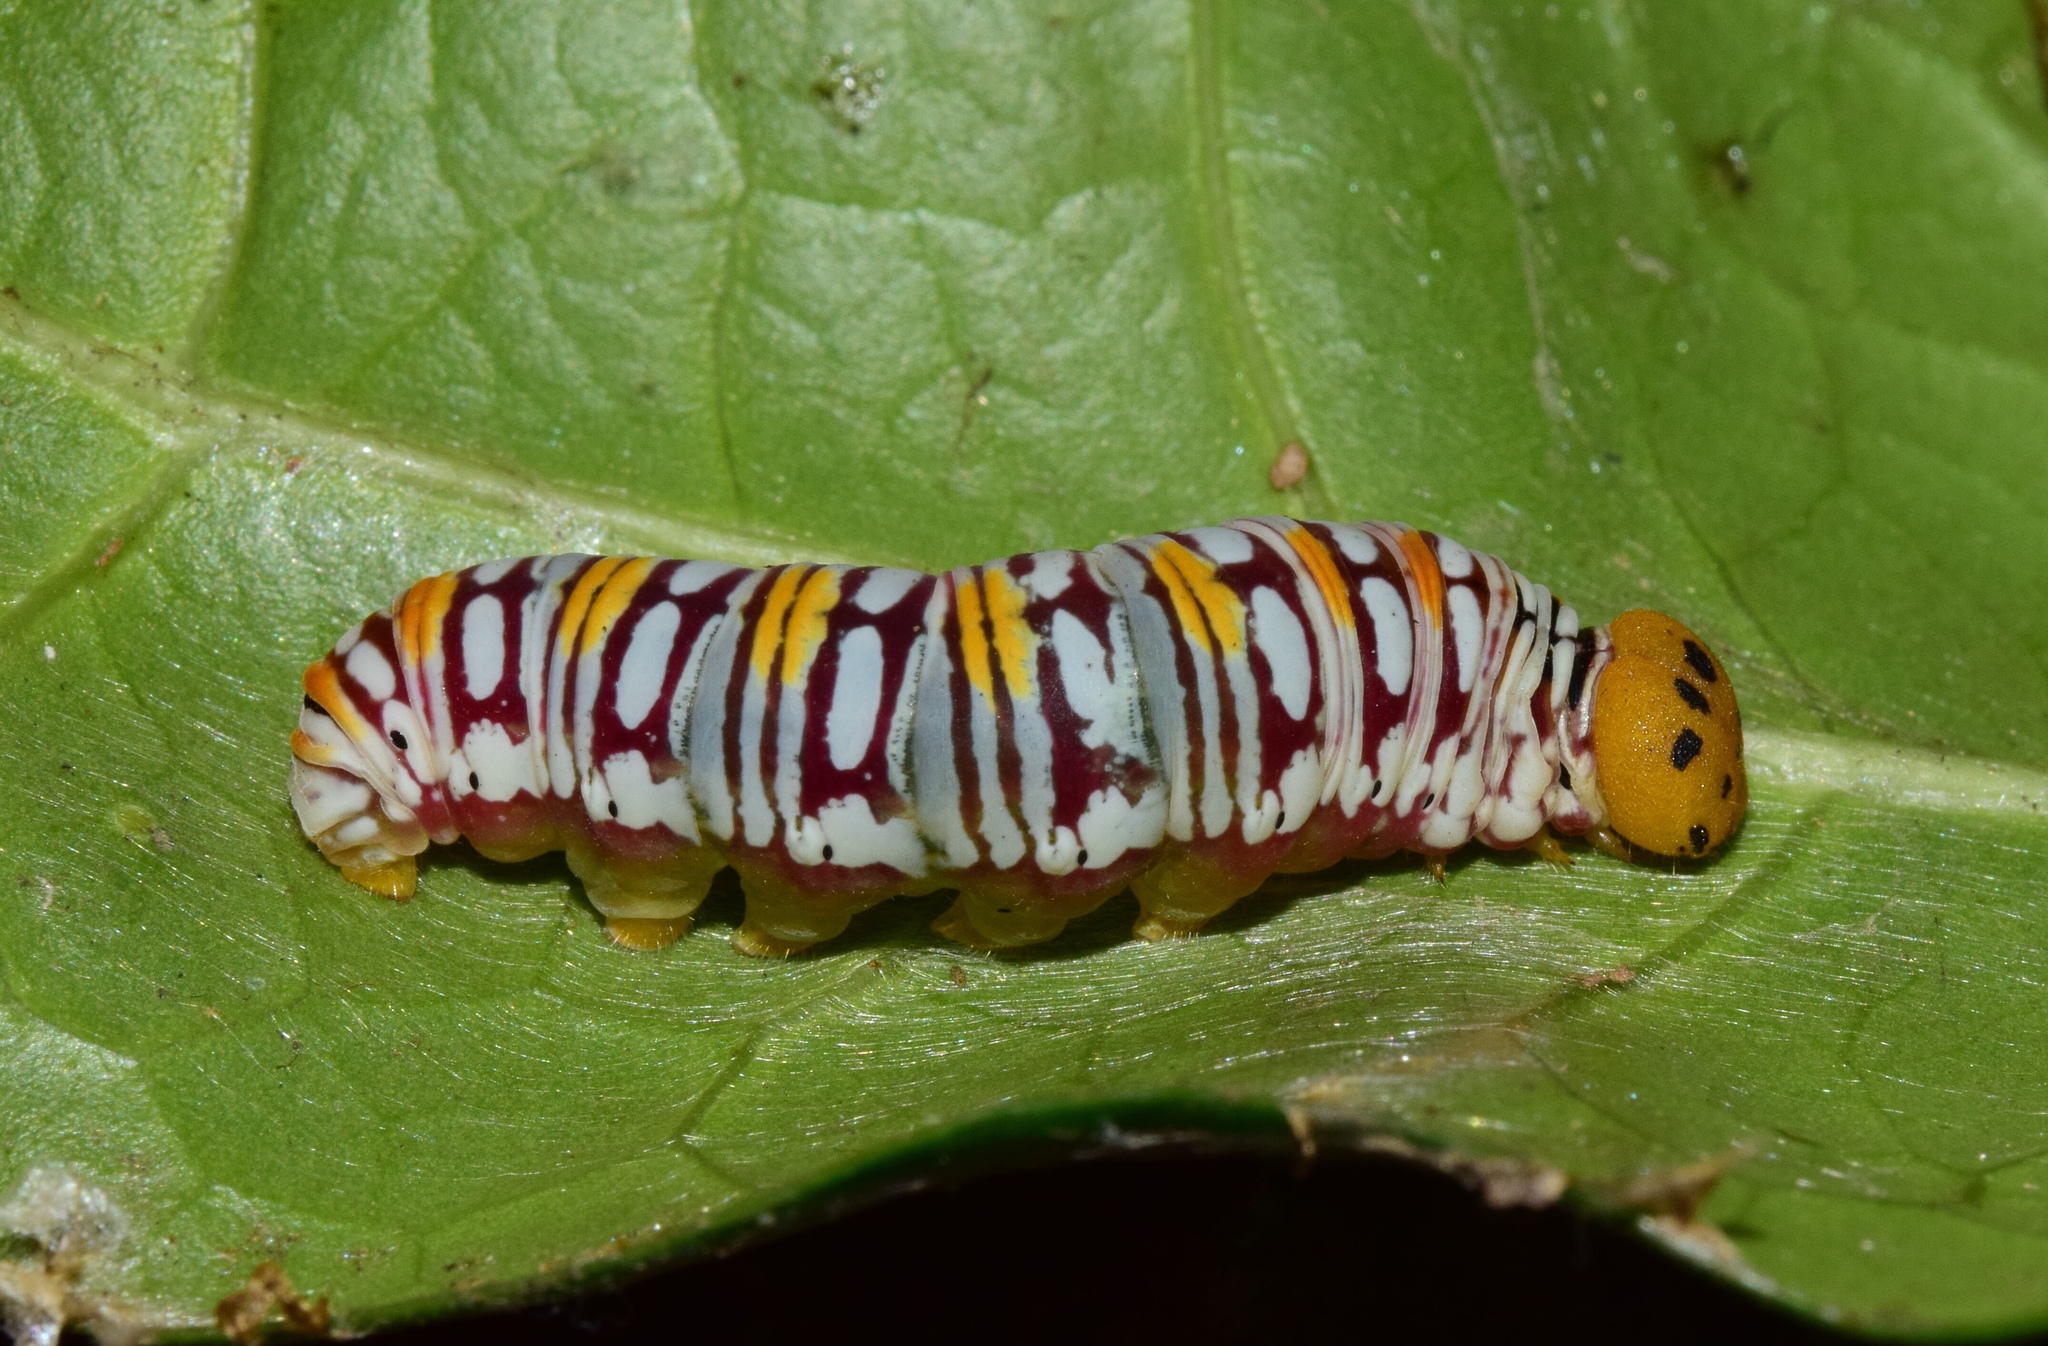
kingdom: Animalia
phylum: Arthropoda
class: Insecta
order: Lepidoptera
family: Hesperiidae
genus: Coeliades
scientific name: Coeliades keithloa
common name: Red-tab policeman
